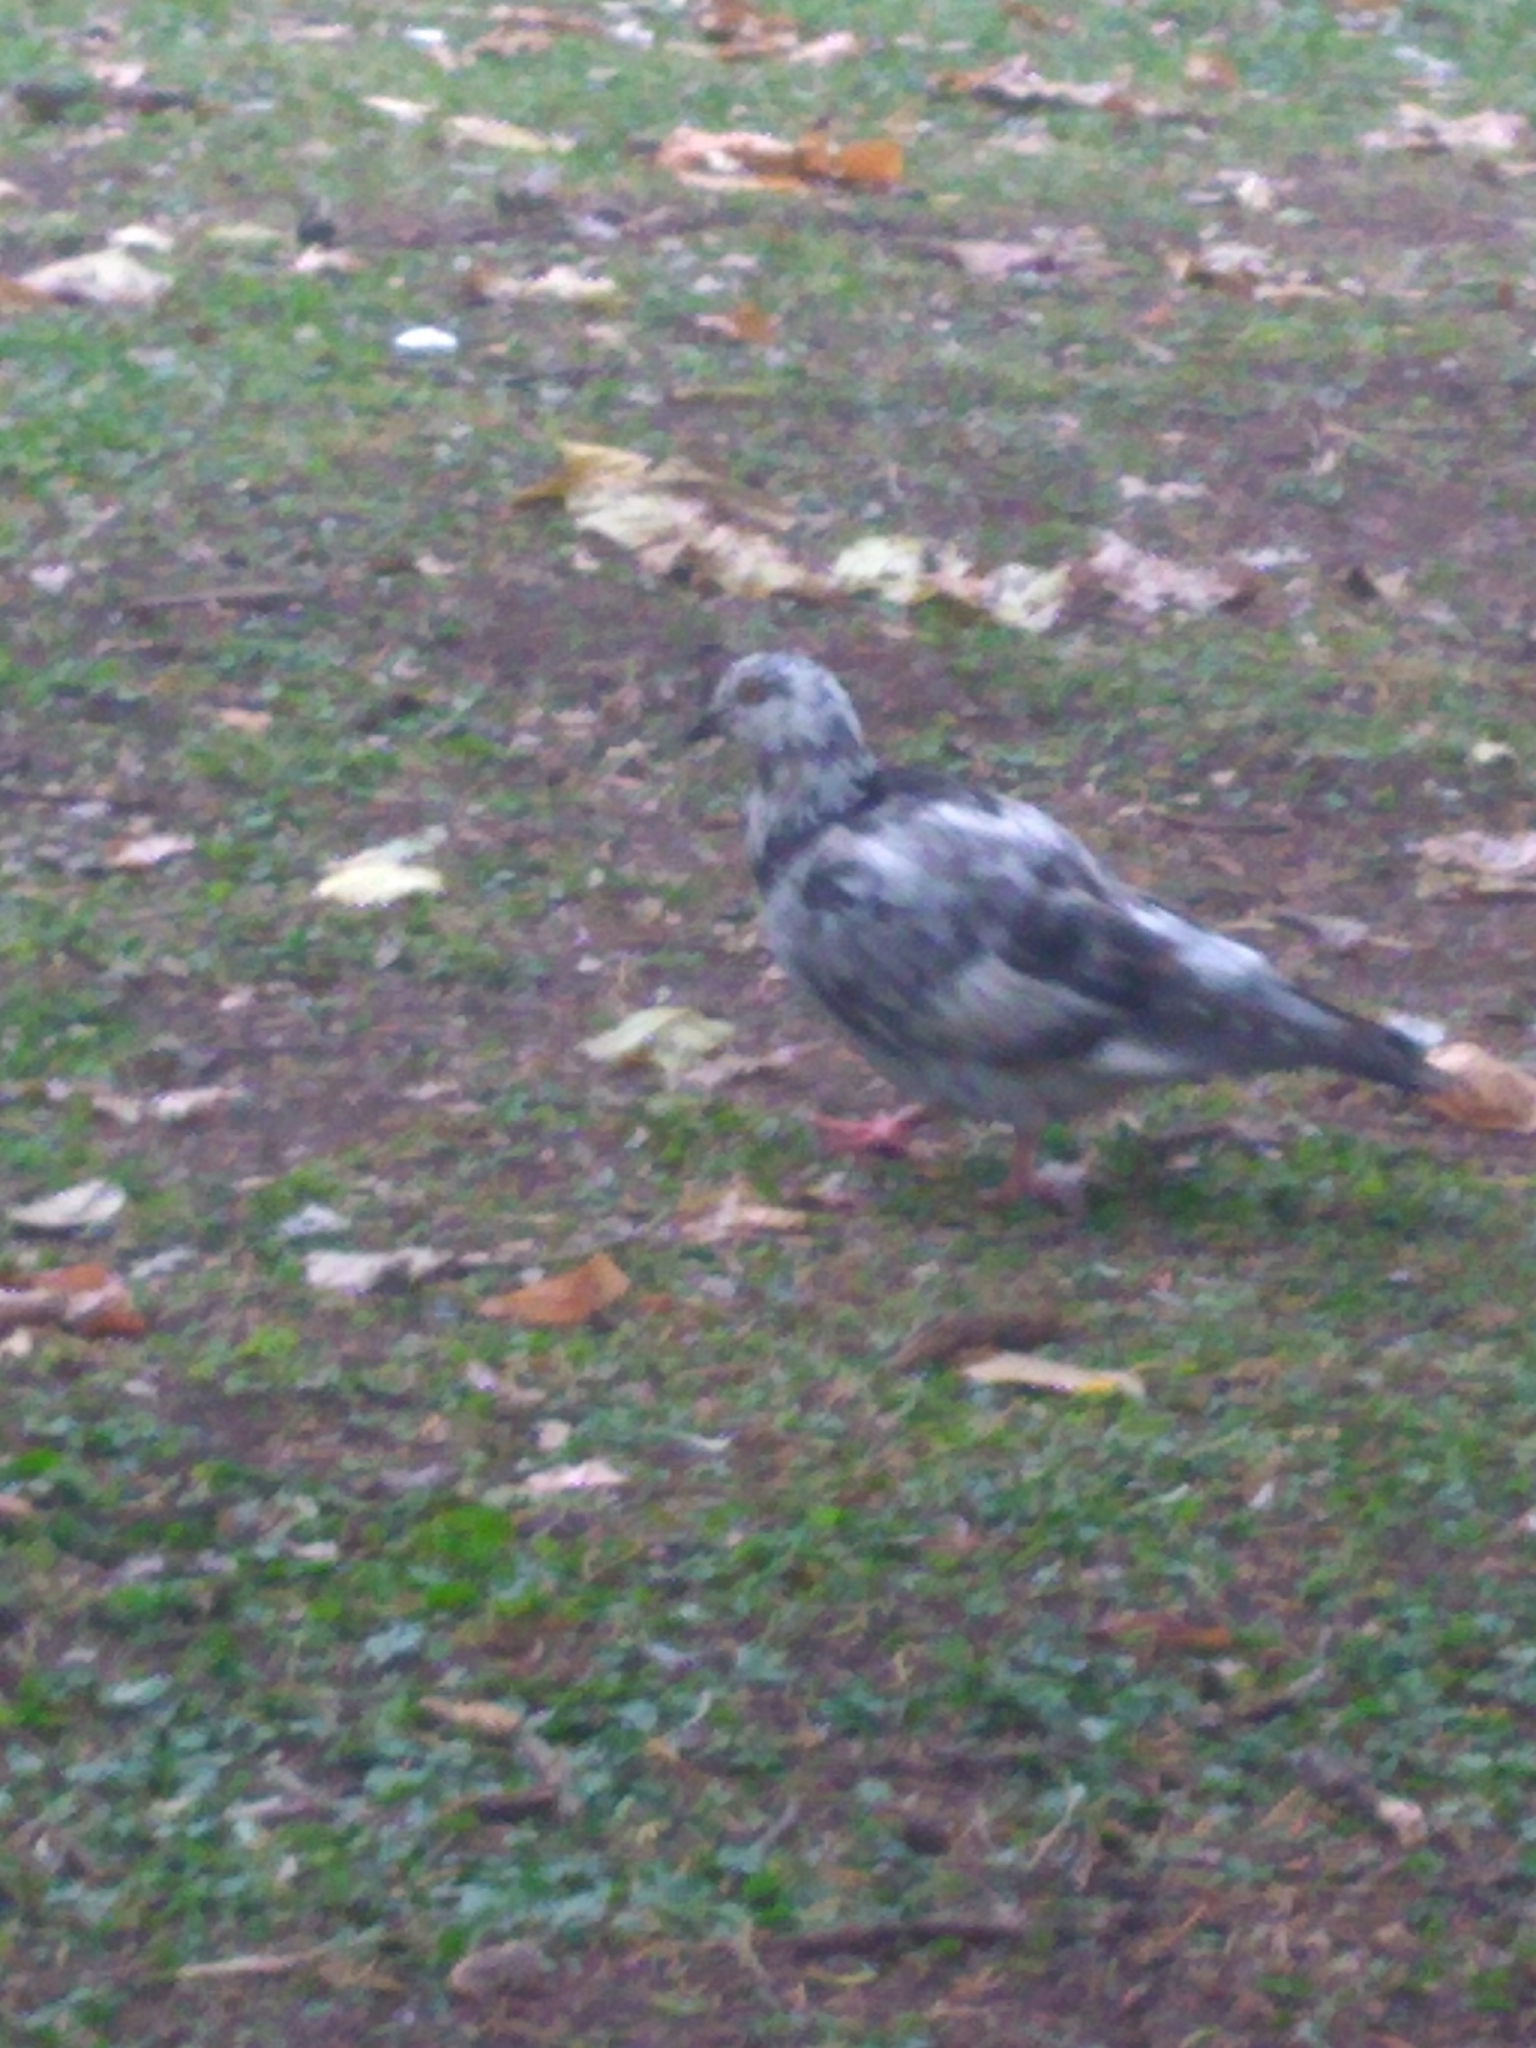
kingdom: Animalia
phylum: Chordata
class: Aves
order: Columbiformes
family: Columbidae
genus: Columba
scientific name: Columba livia
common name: Rock pigeon
